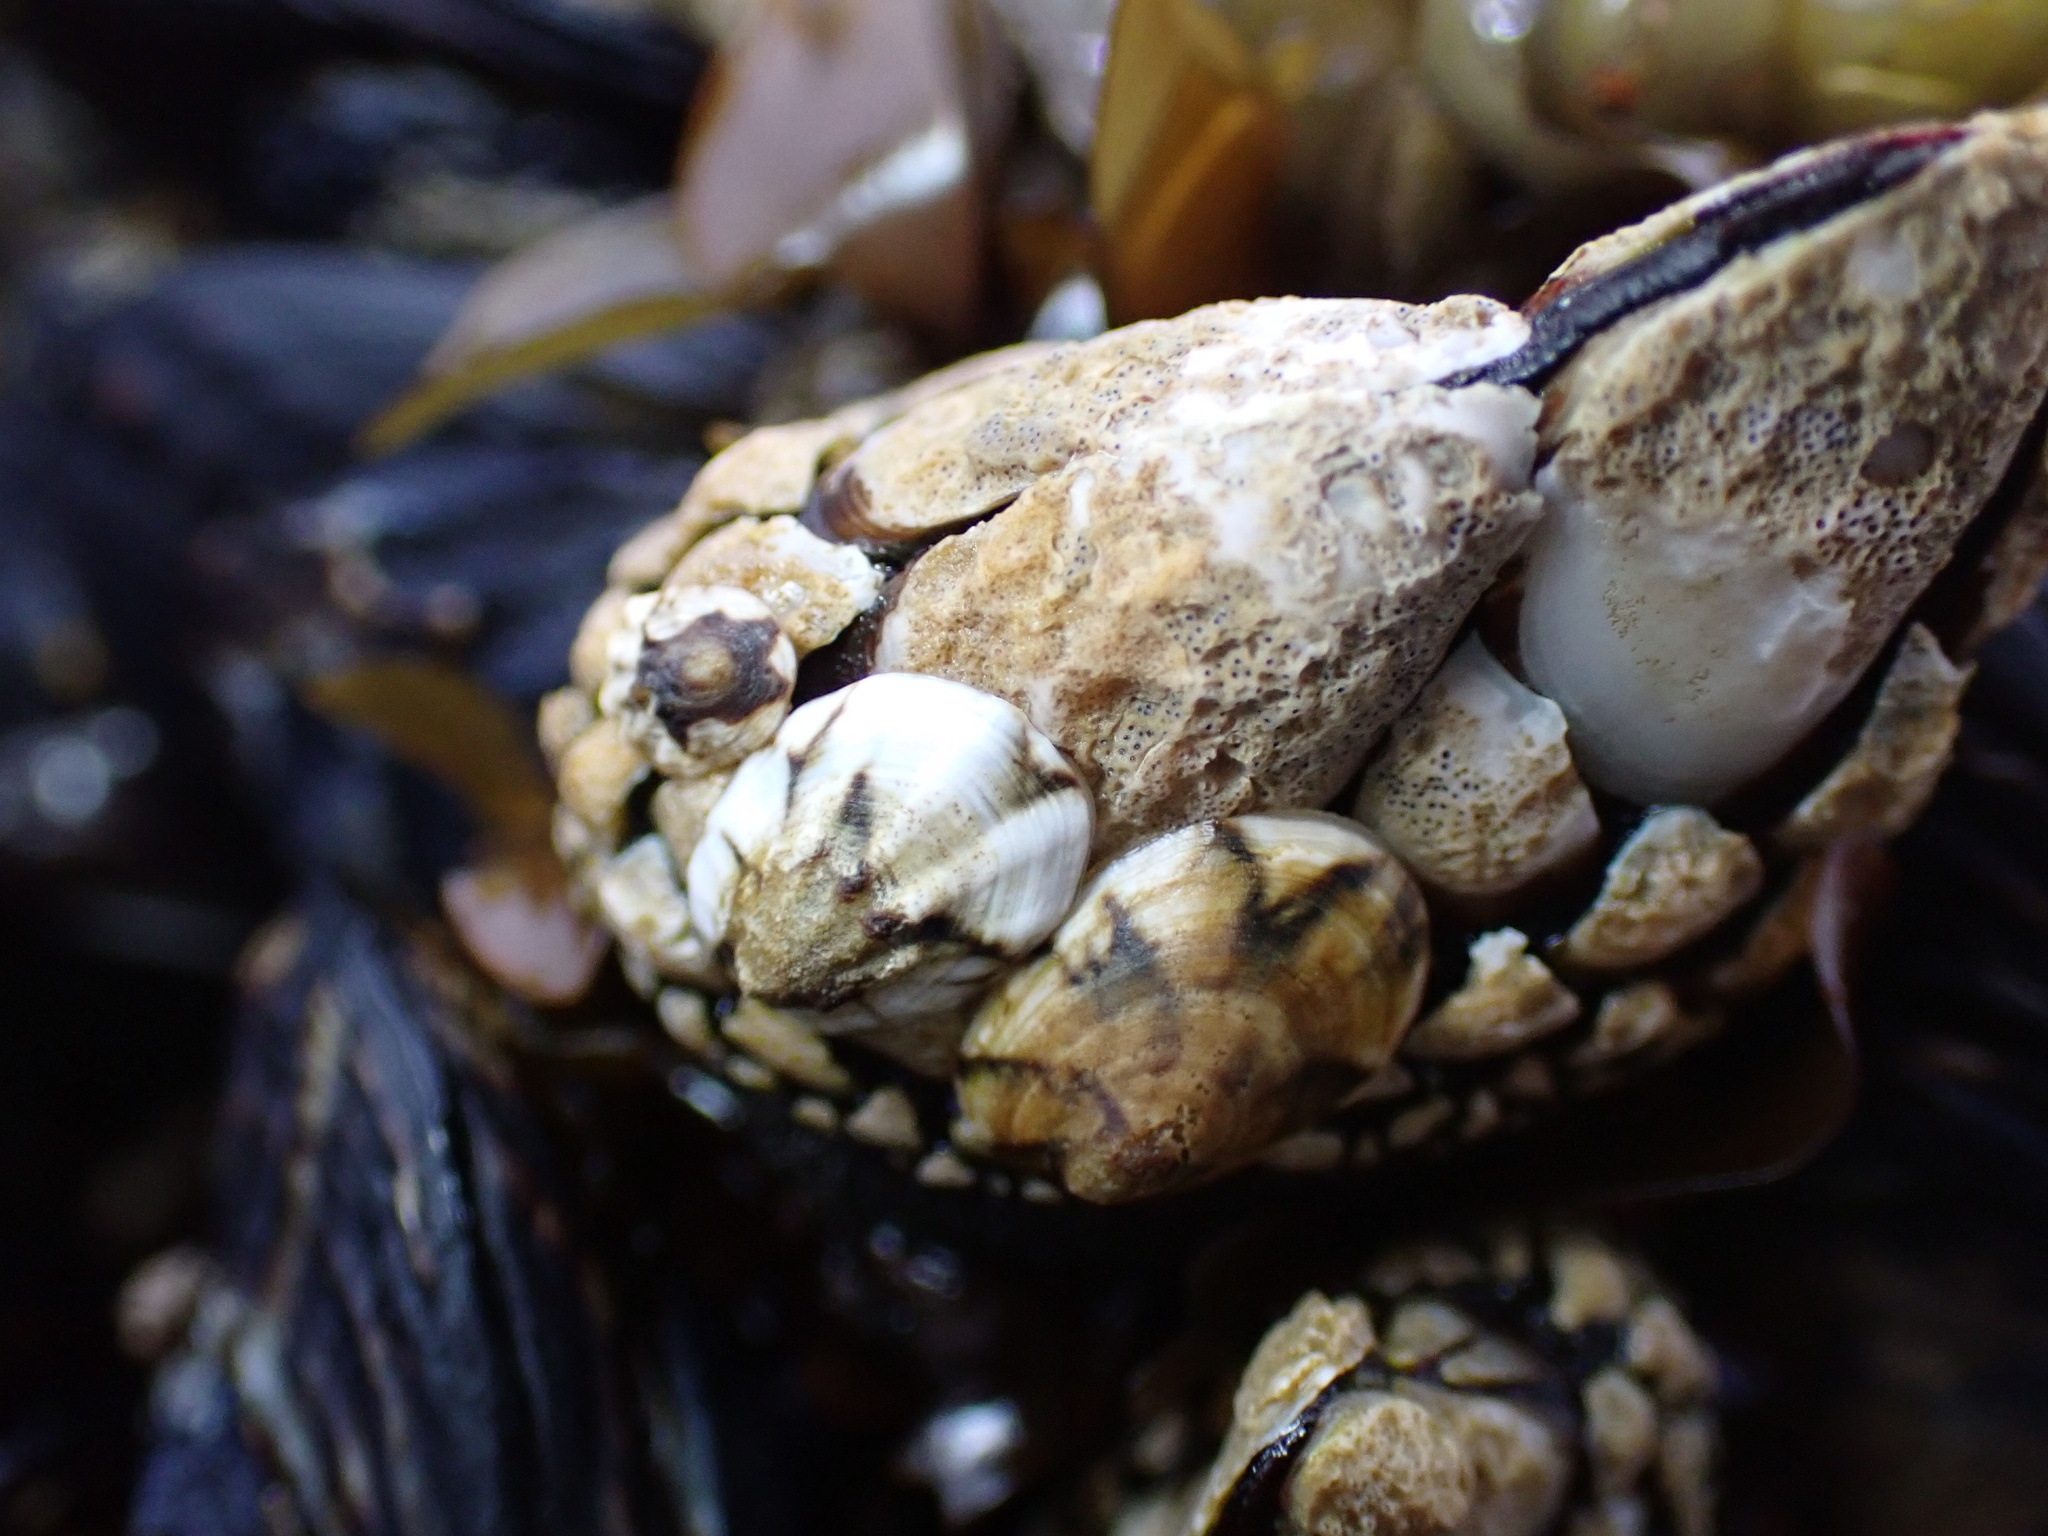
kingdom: Animalia
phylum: Mollusca
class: Gastropoda
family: Lottiidae
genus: Lottia
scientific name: Lottia digitalis
